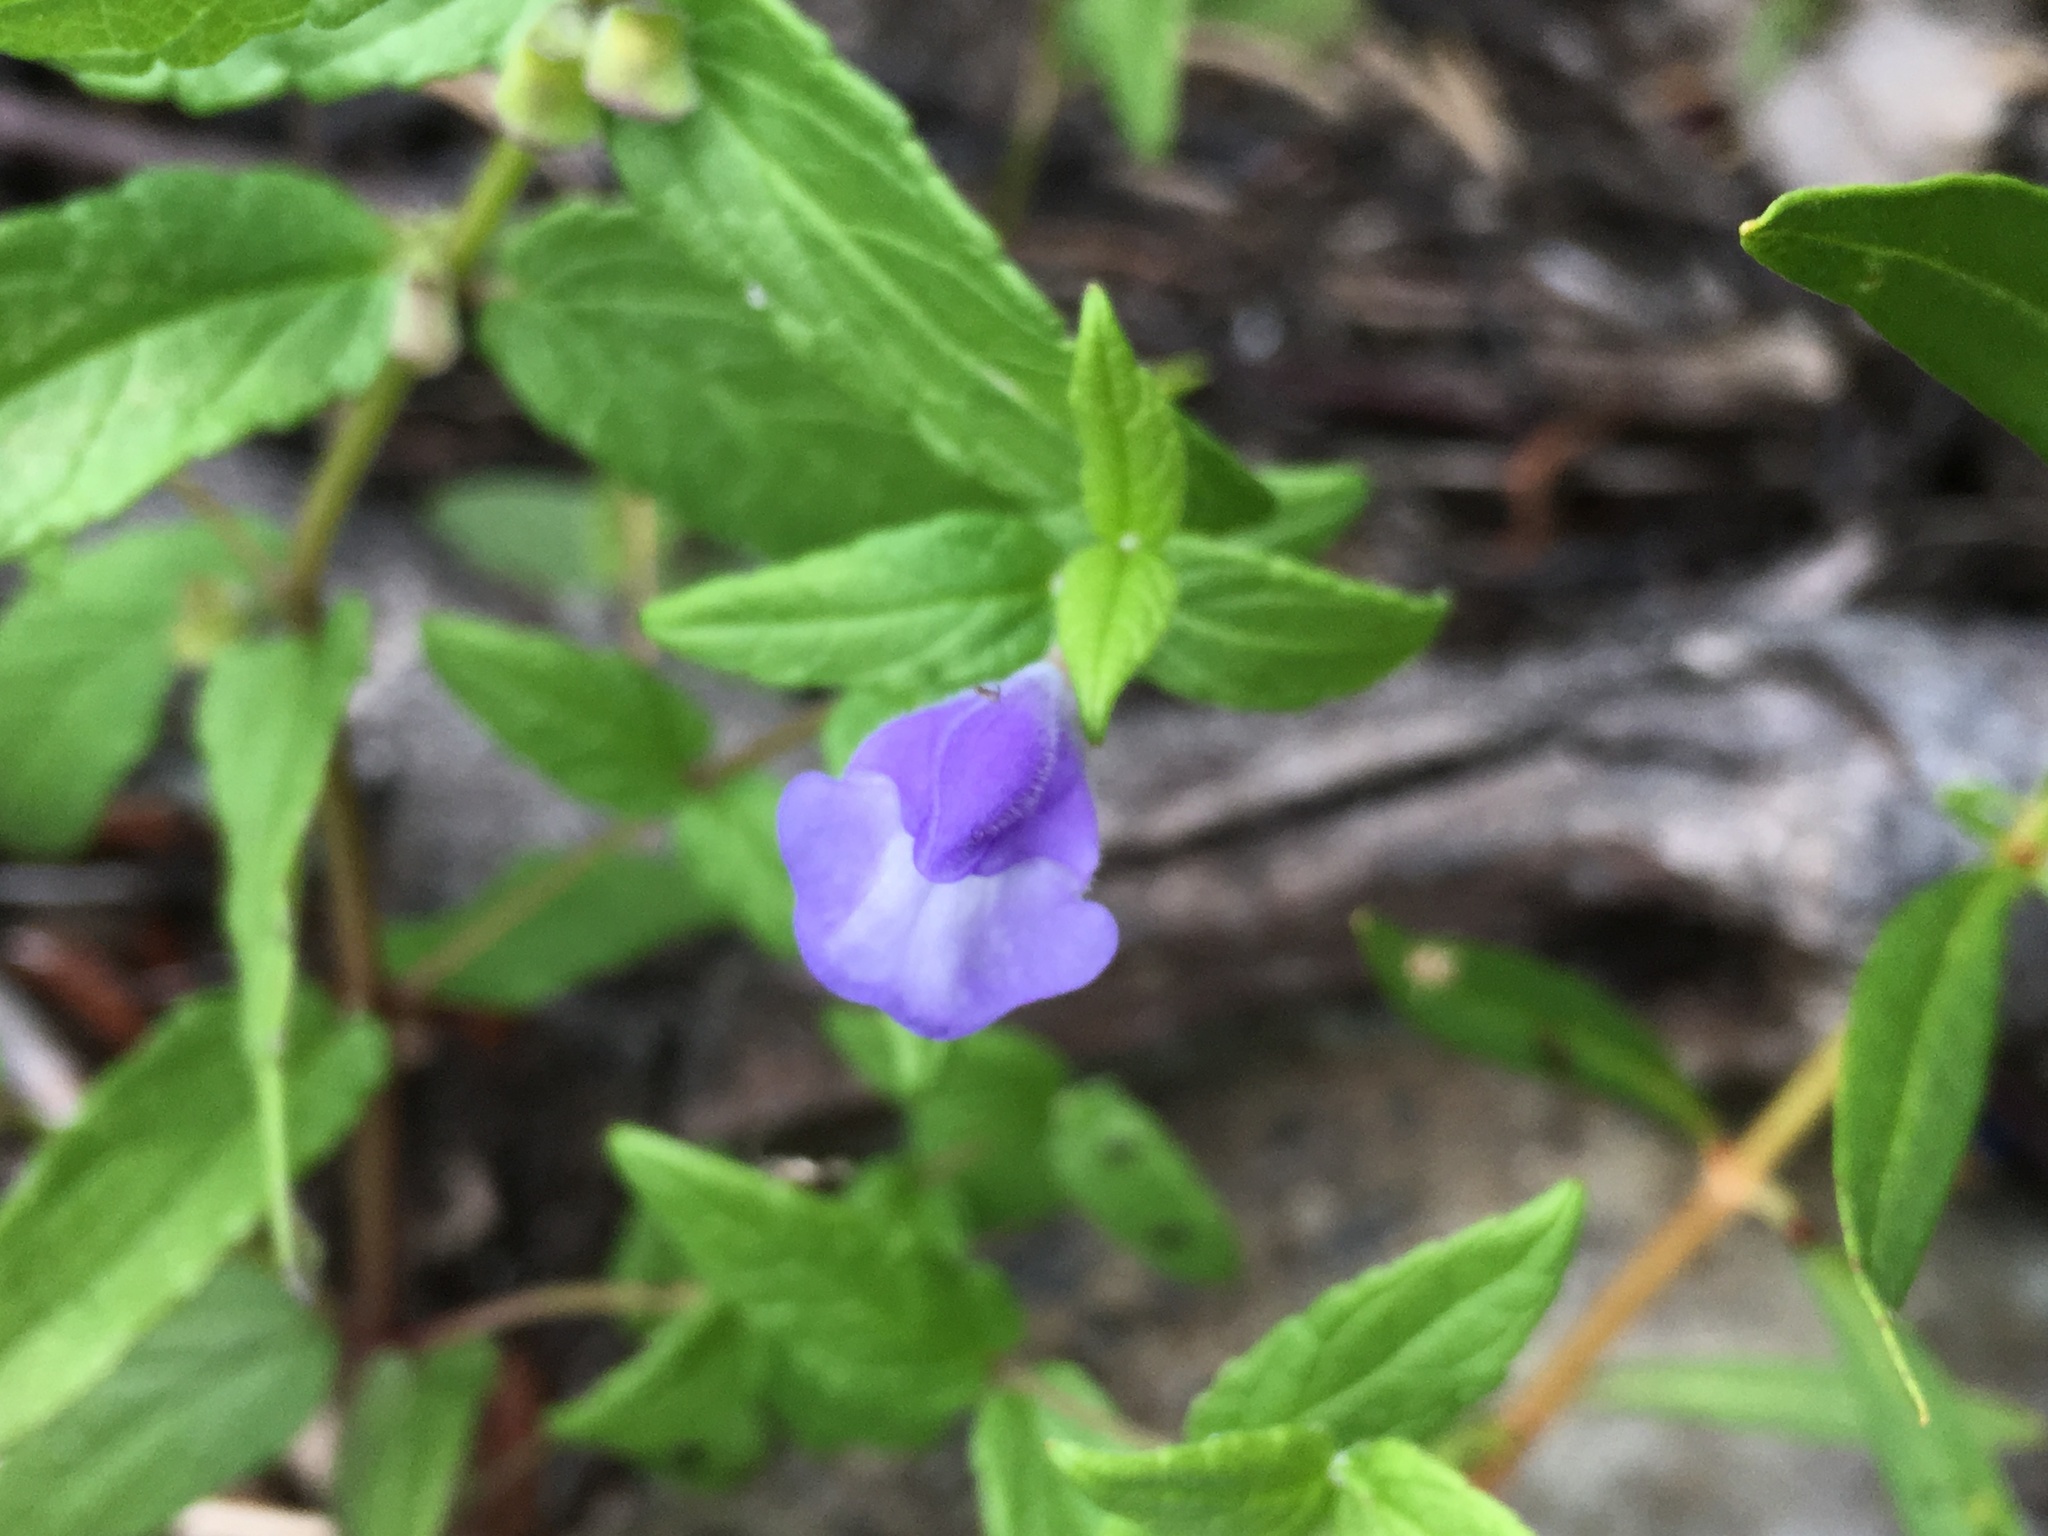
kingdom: Plantae
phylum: Tracheophyta
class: Magnoliopsida
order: Lamiales
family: Lamiaceae
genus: Scutellaria
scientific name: Scutellaria galericulata
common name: Skullcap
